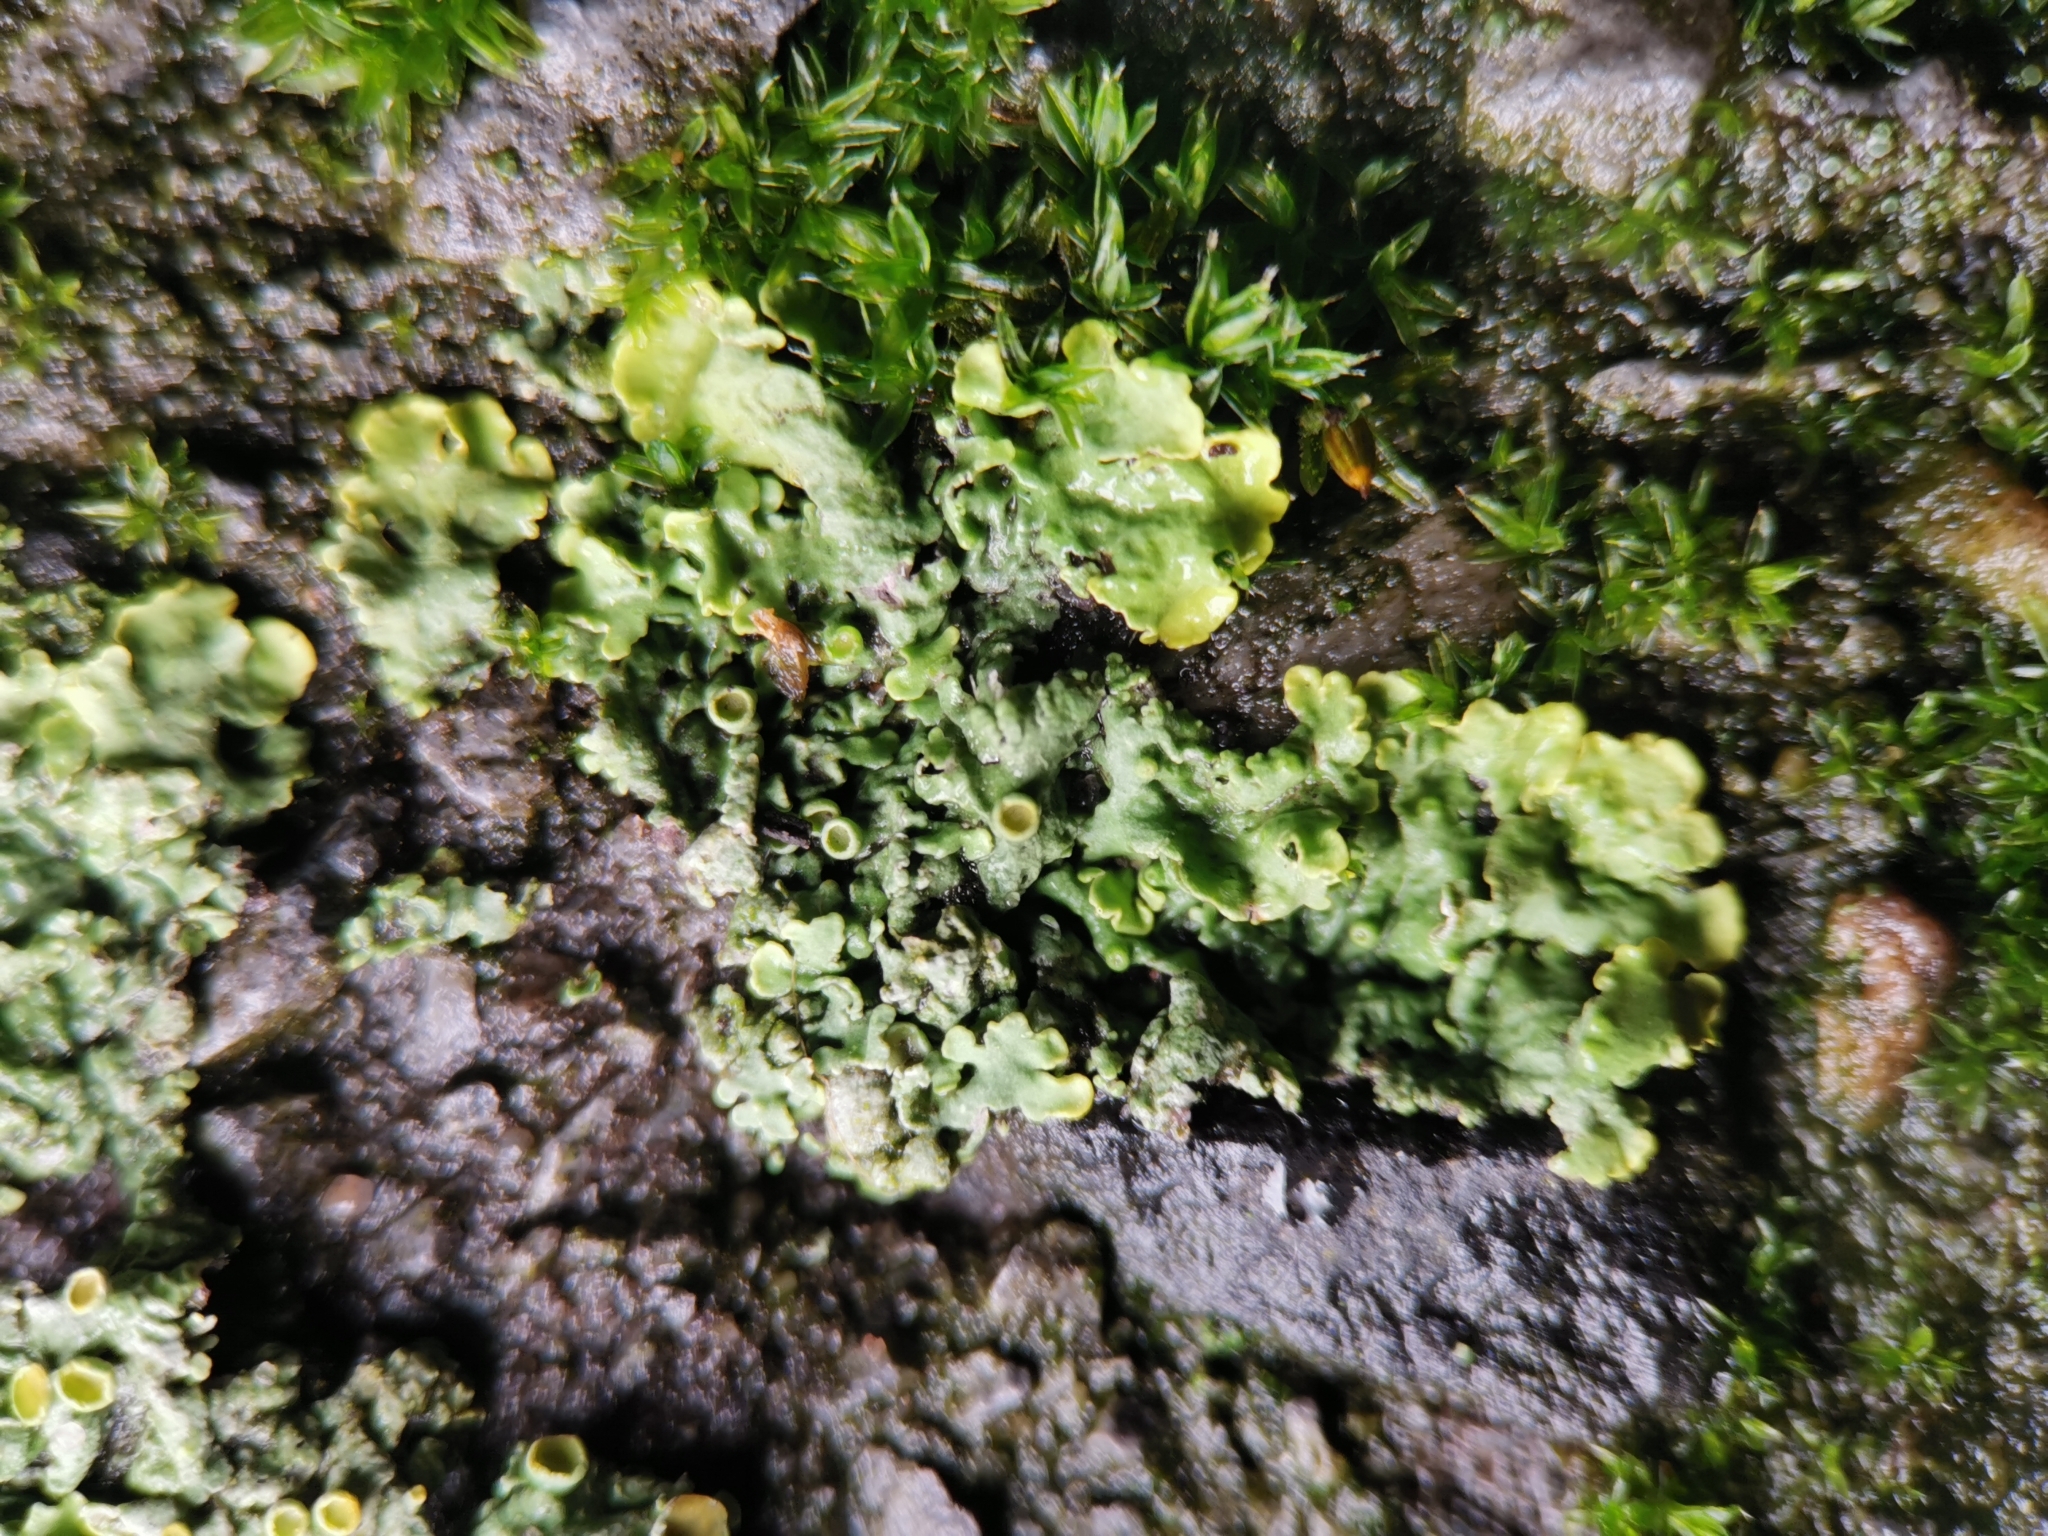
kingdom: Fungi
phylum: Ascomycota
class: Lecanoromycetes
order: Teloschistales
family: Teloschistaceae
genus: Xanthoria
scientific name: Xanthoria parietina
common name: Common orange lichen
